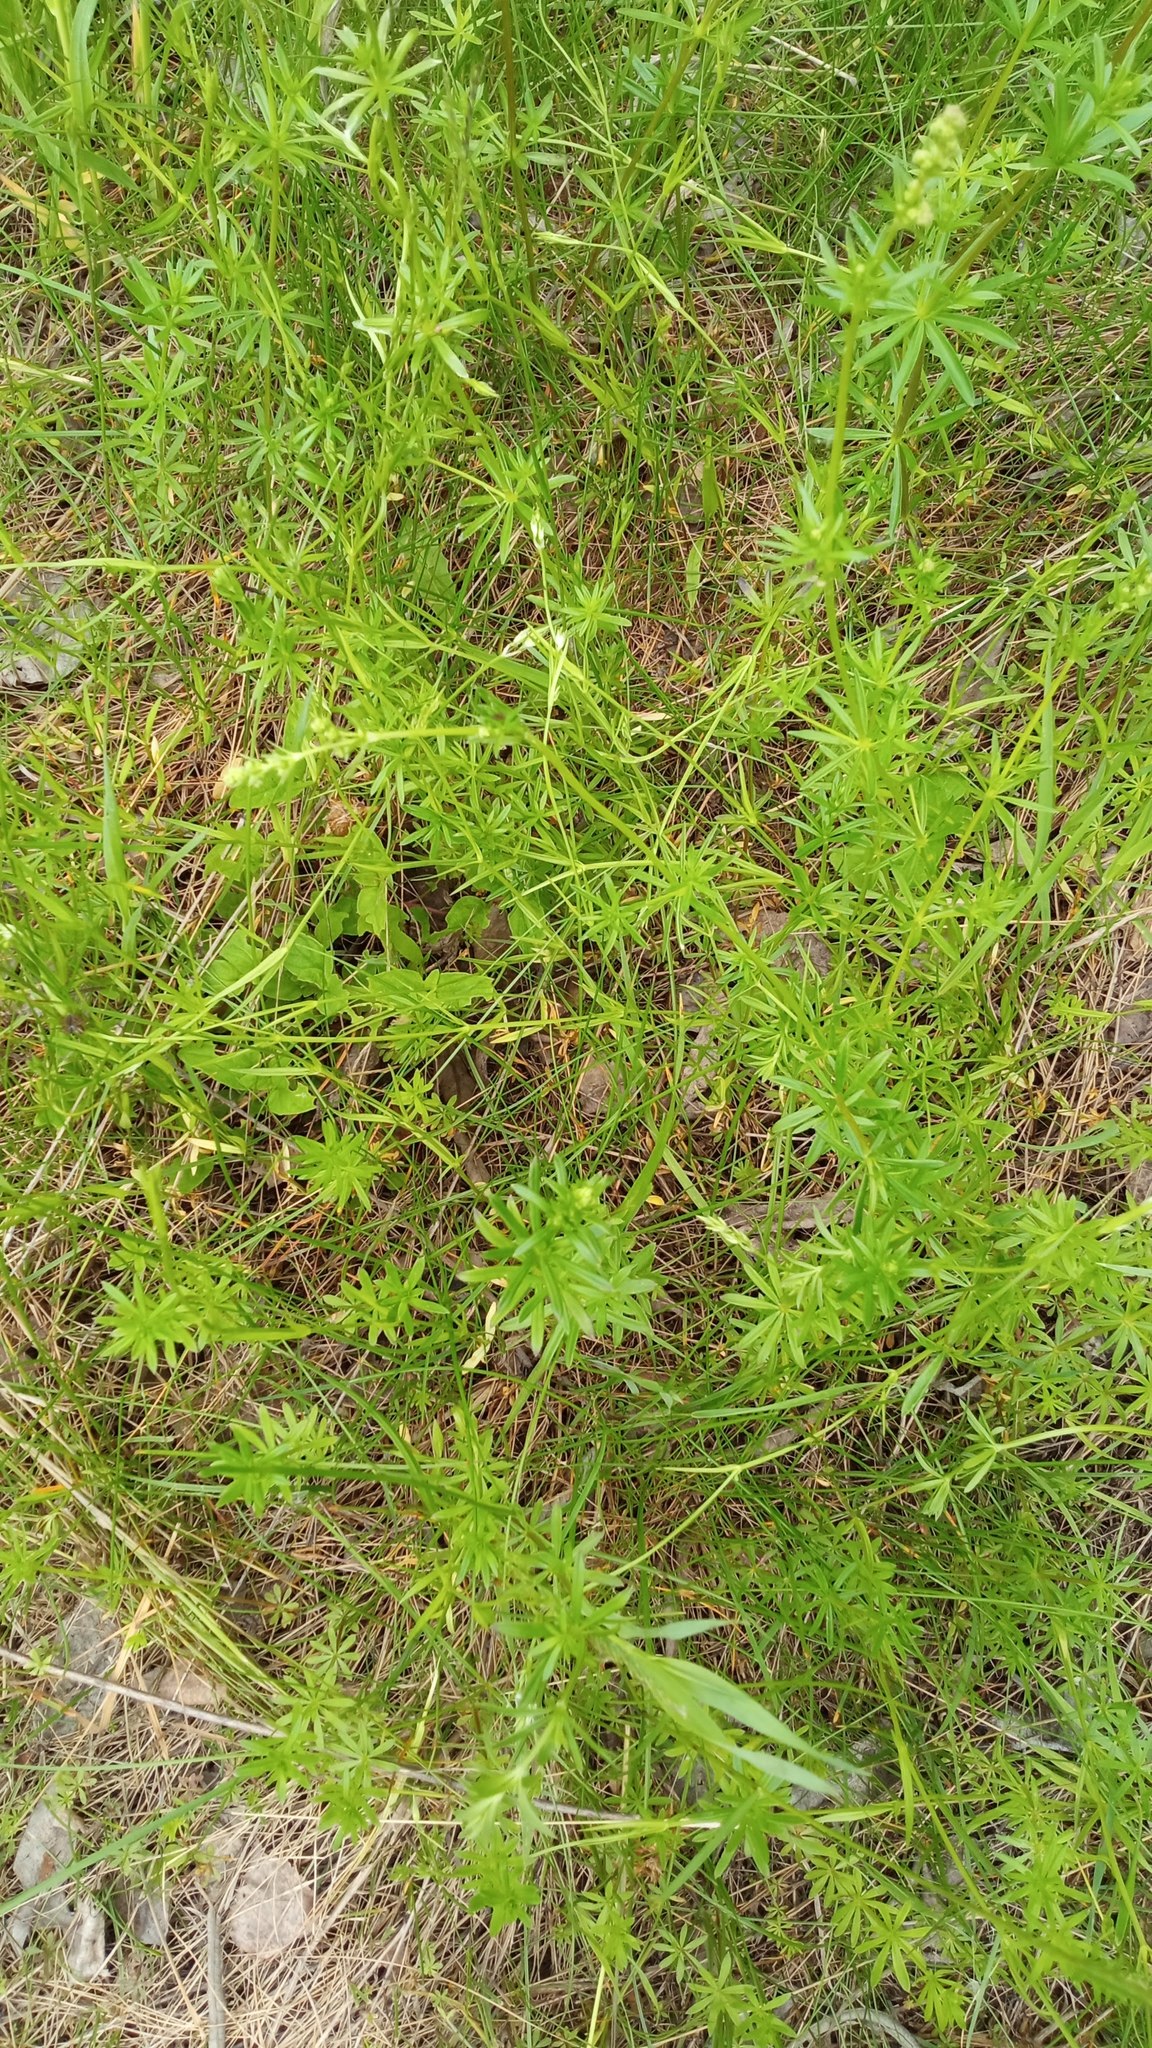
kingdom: Plantae
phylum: Tracheophyta
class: Magnoliopsida
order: Gentianales
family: Rubiaceae
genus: Galium
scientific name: Galium mollugo
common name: Hedge bedstraw
